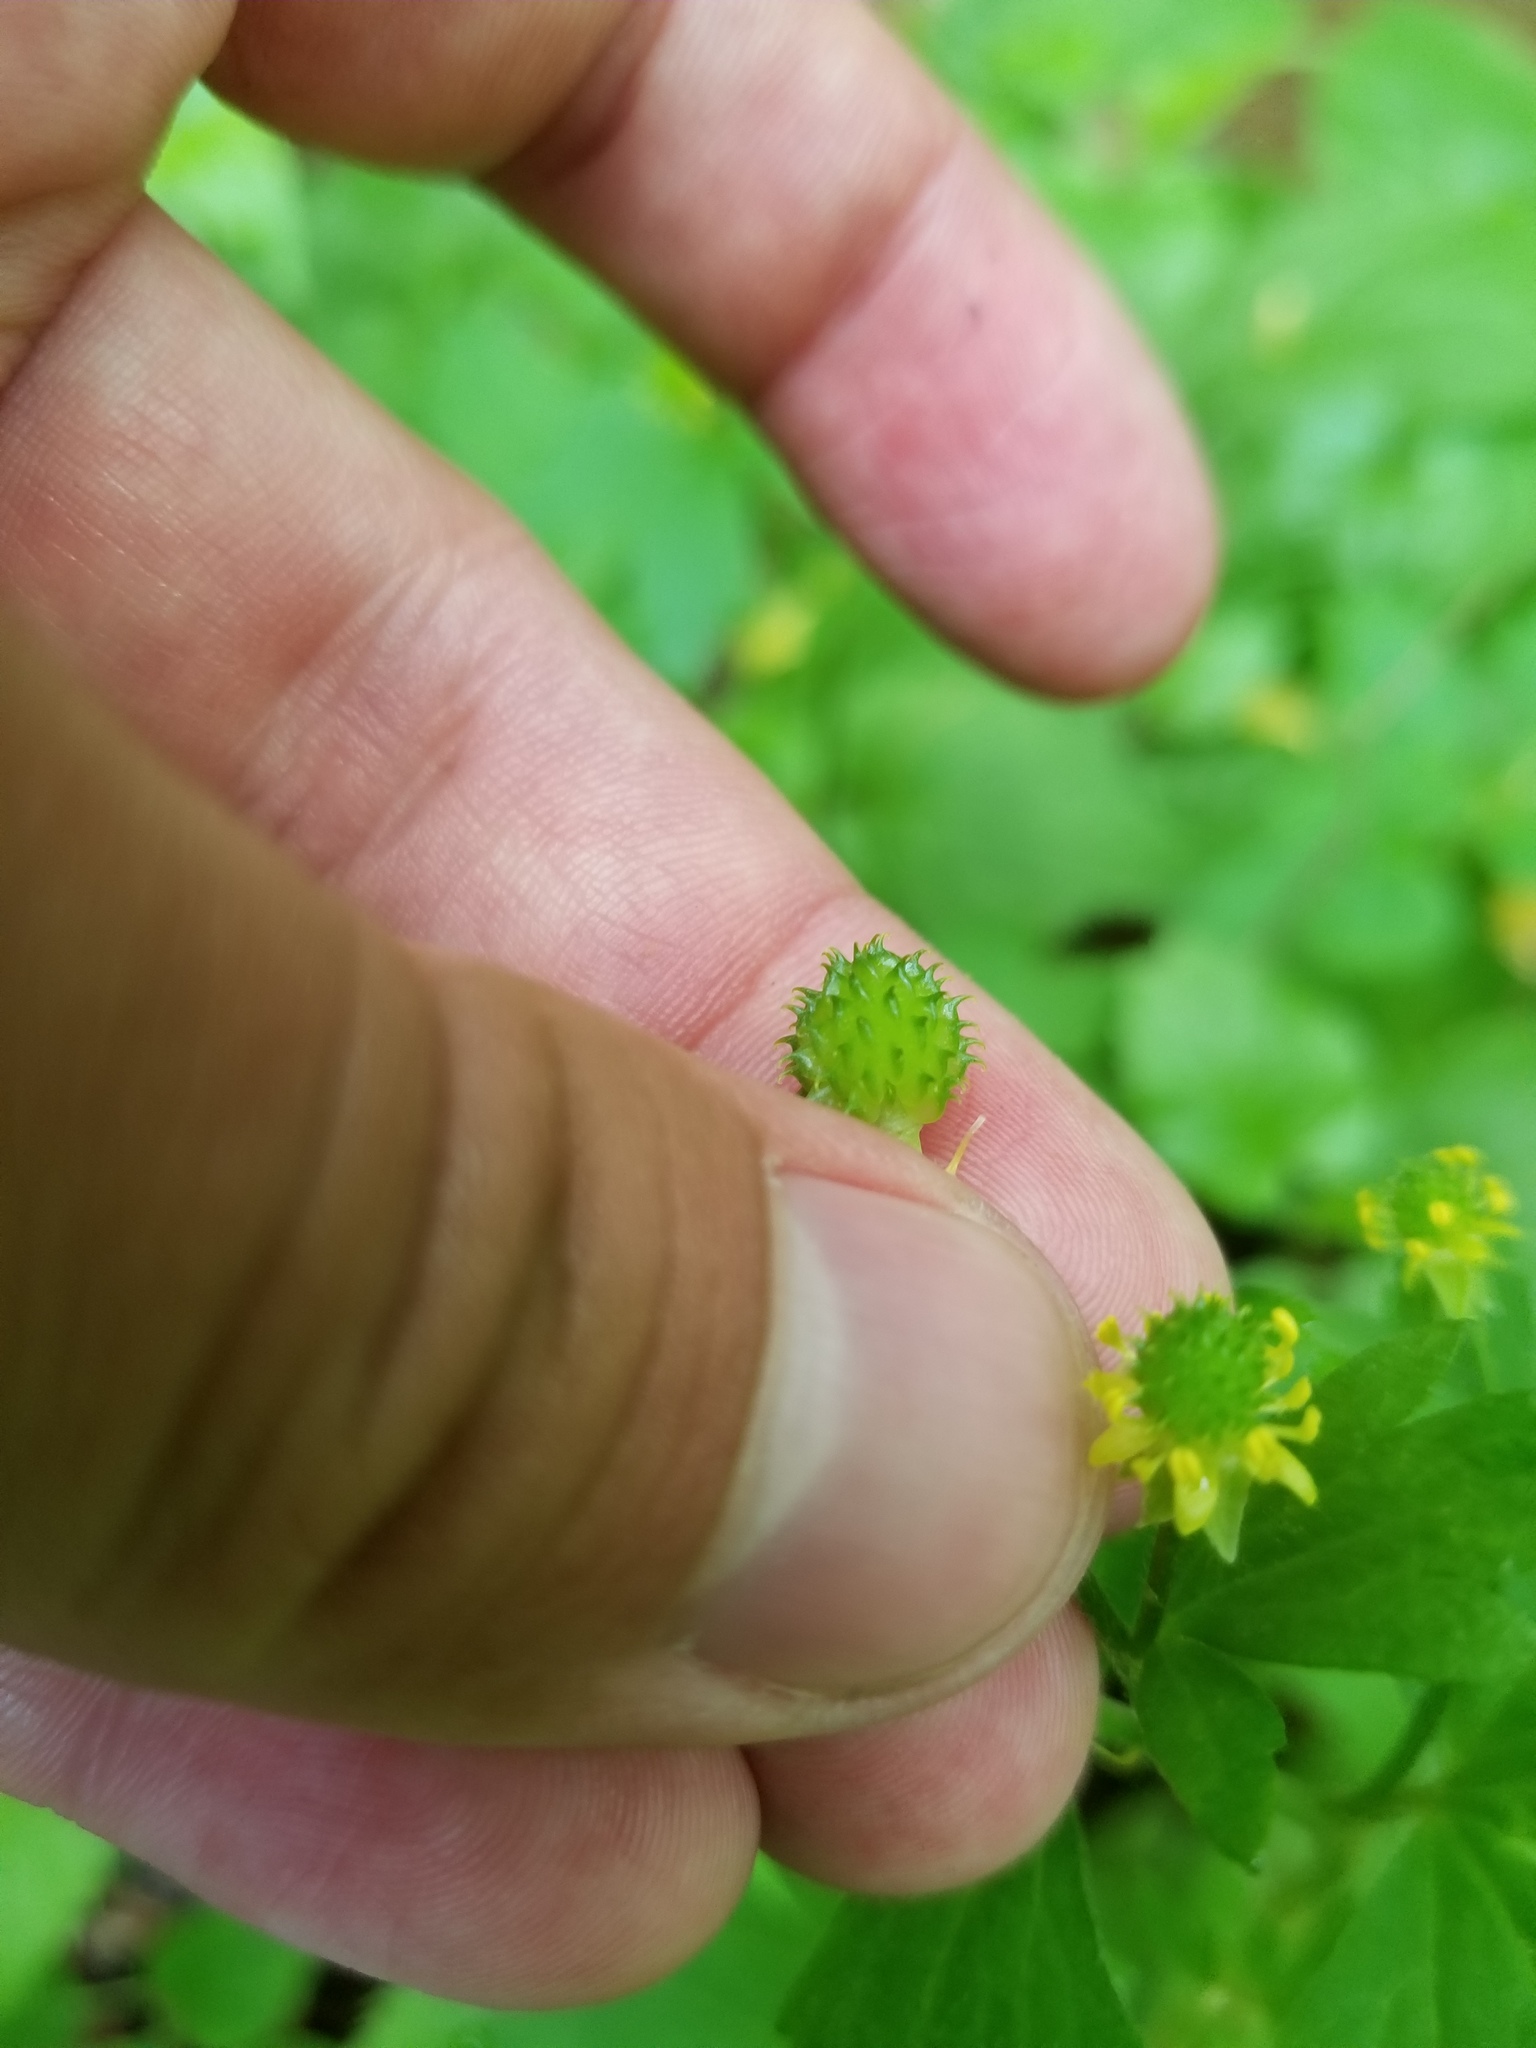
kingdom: Plantae
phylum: Tracheophyta
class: Magnoliopsida
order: Ranunculales
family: Ranunculaceae
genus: Ranunculus
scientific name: Ranunculus recurvatus
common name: Blisterwort
